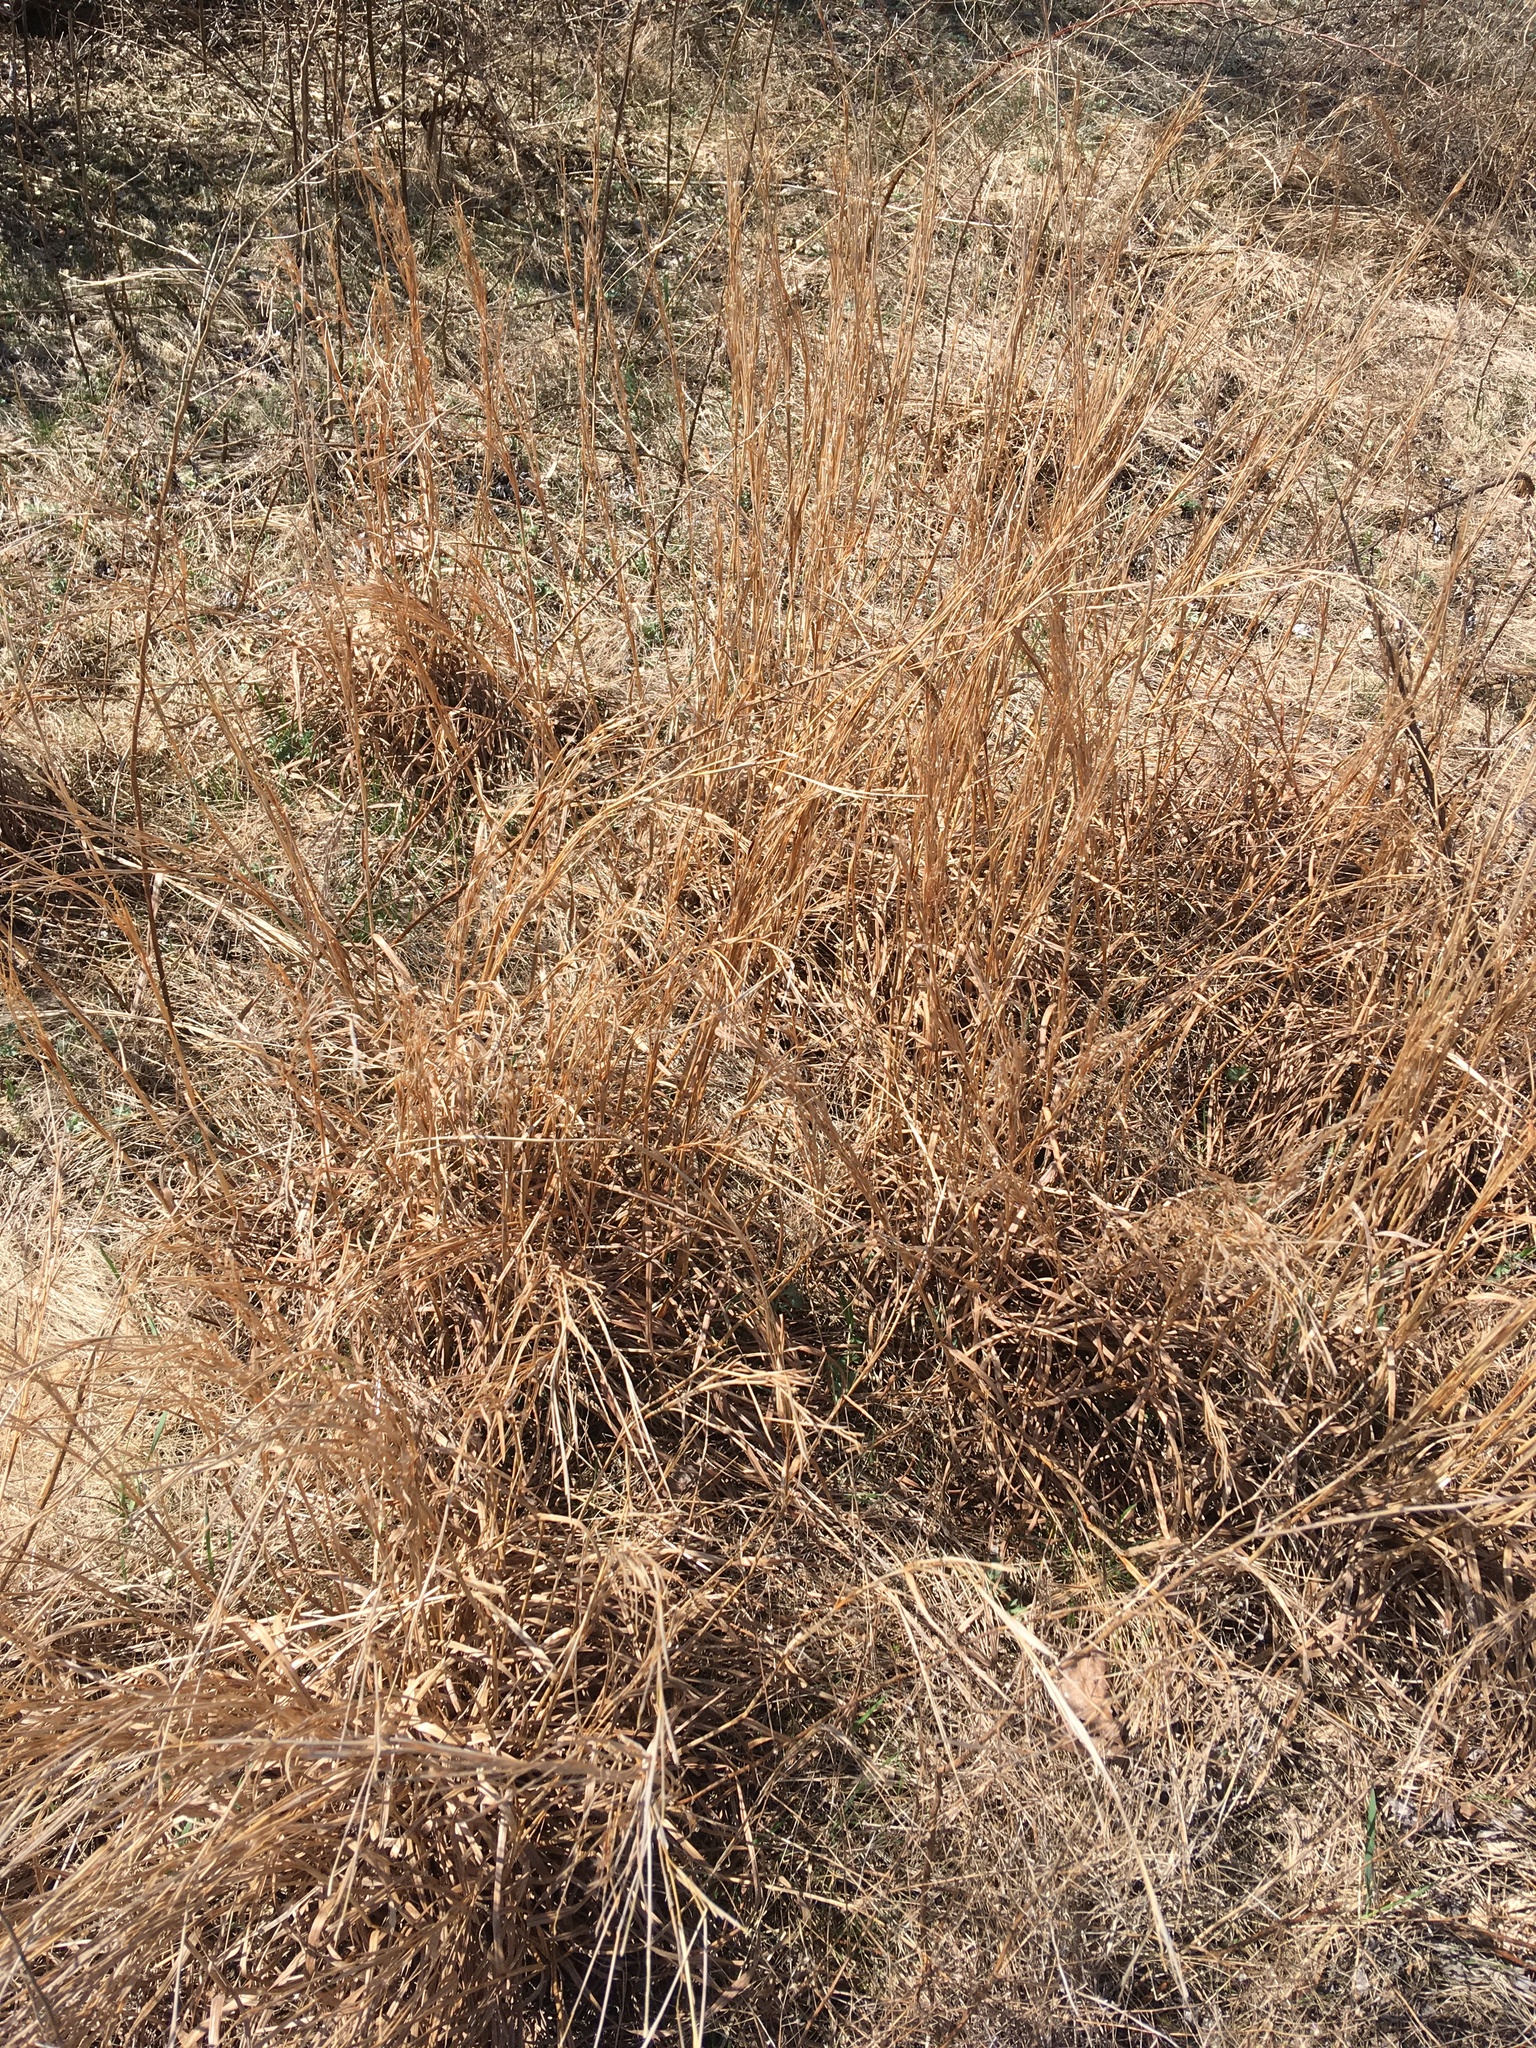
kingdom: Plantae
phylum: Tracheophyta
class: Liliopsida
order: Poales
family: Poaceae
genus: Schizachyrium
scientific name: Schizachyrium scoparium
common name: Little bluestem
